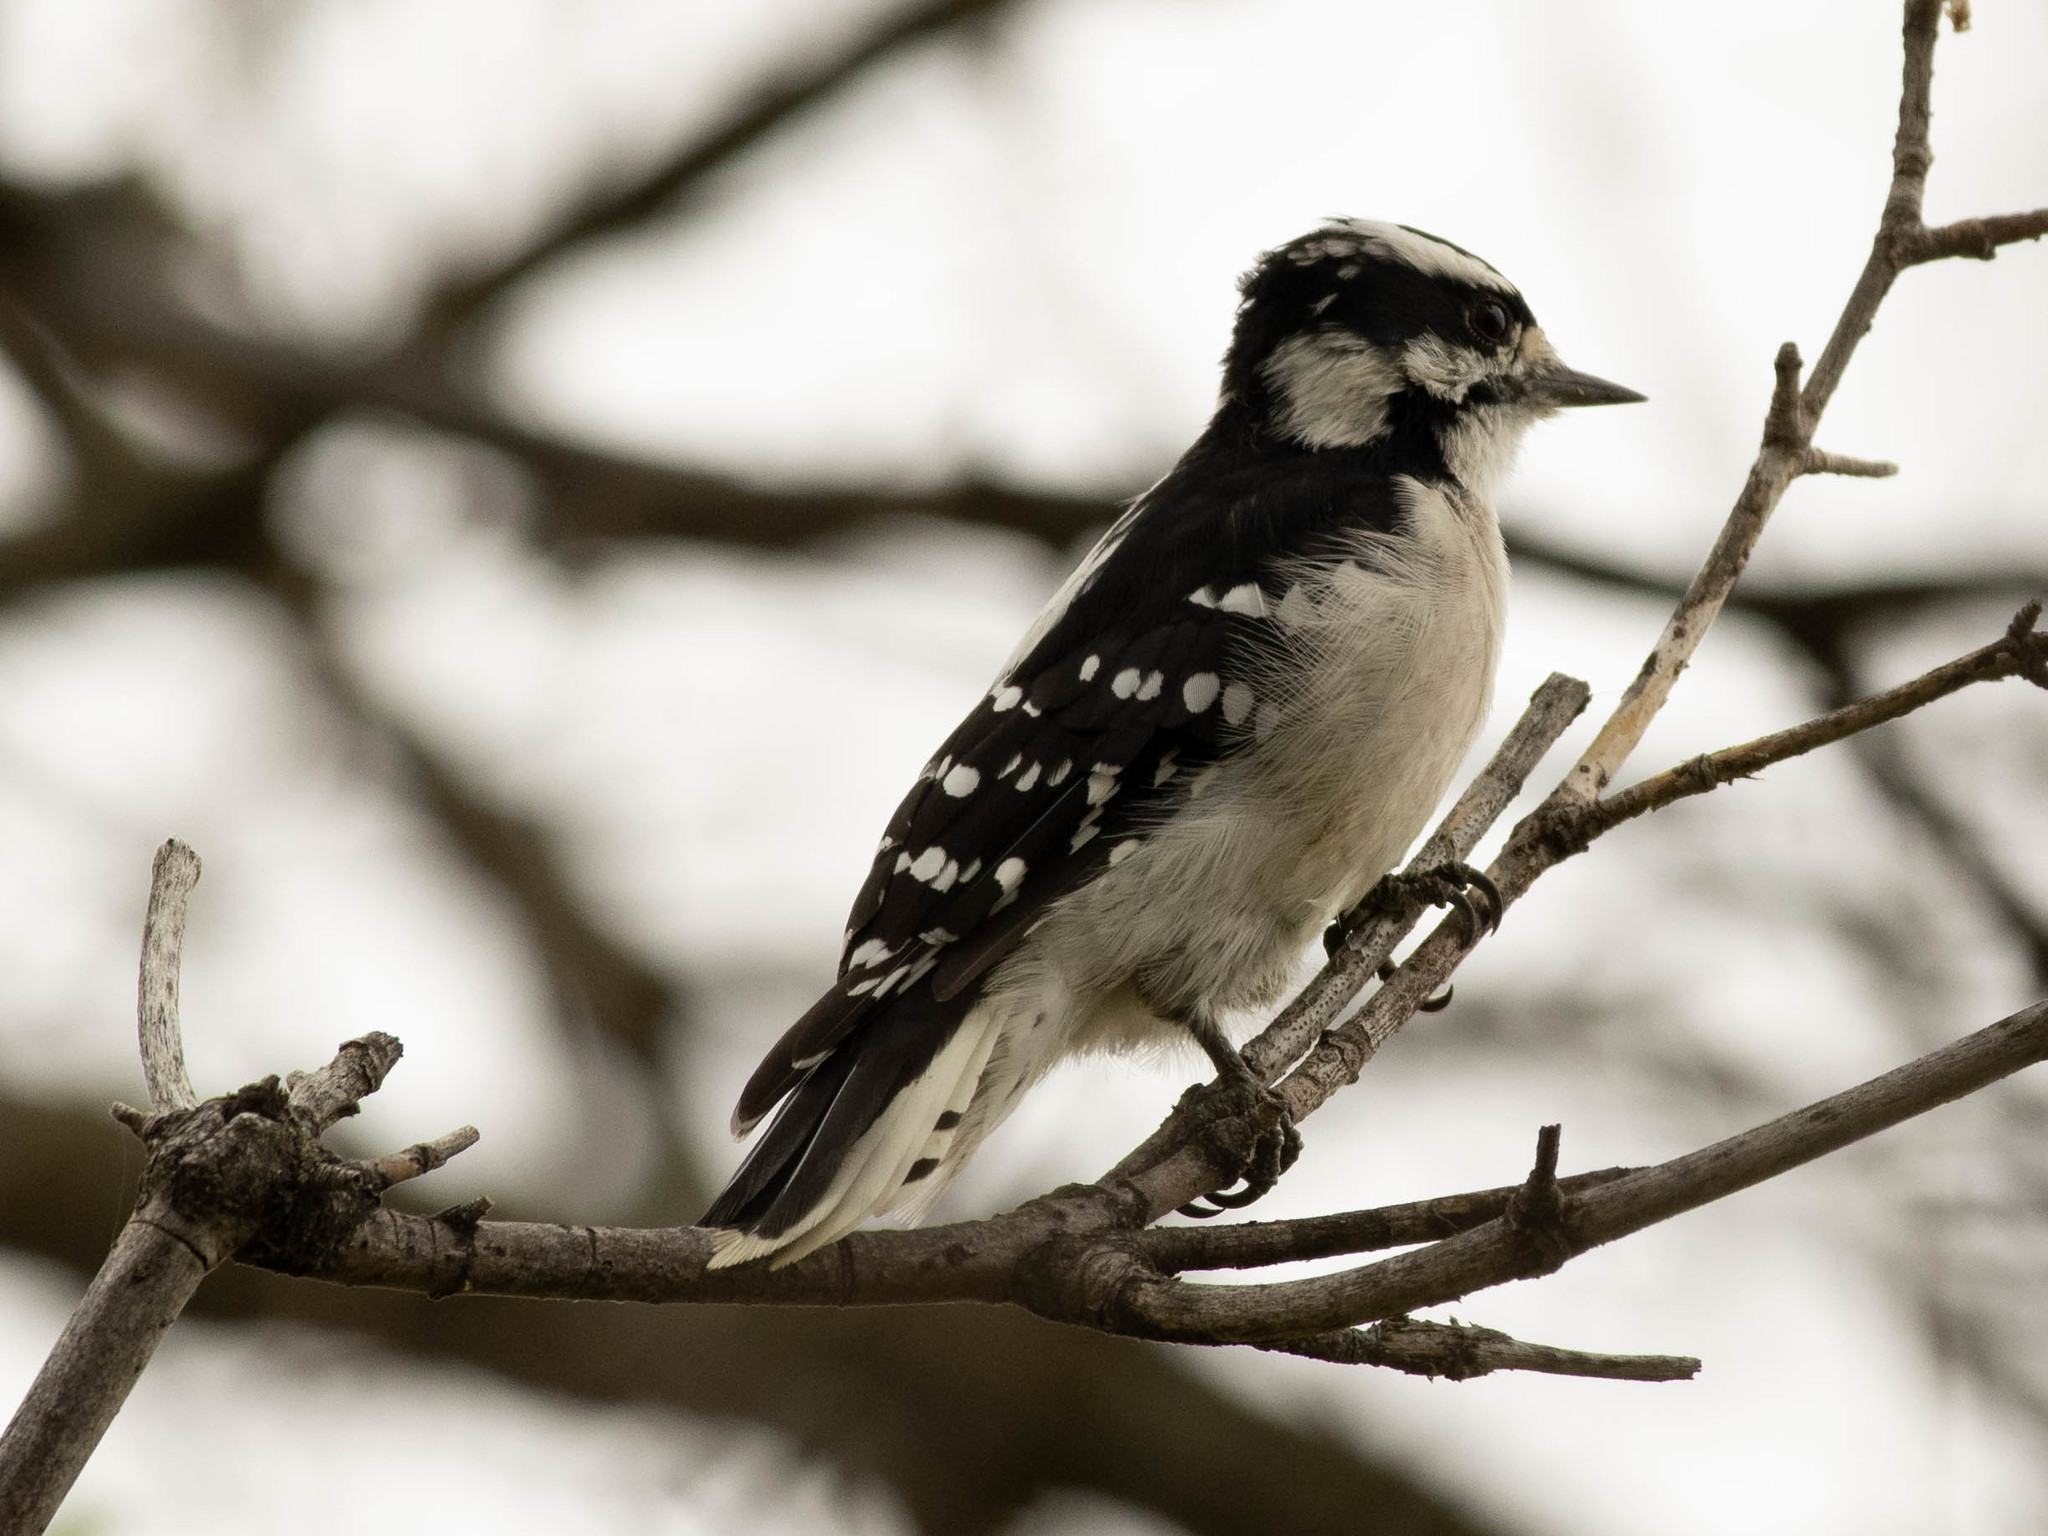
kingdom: Animalia
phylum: Chordata
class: Aves
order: Piciformes
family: Picidae
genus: Dryobates
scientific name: Dryobates pubescens
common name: Downy woodpecker
